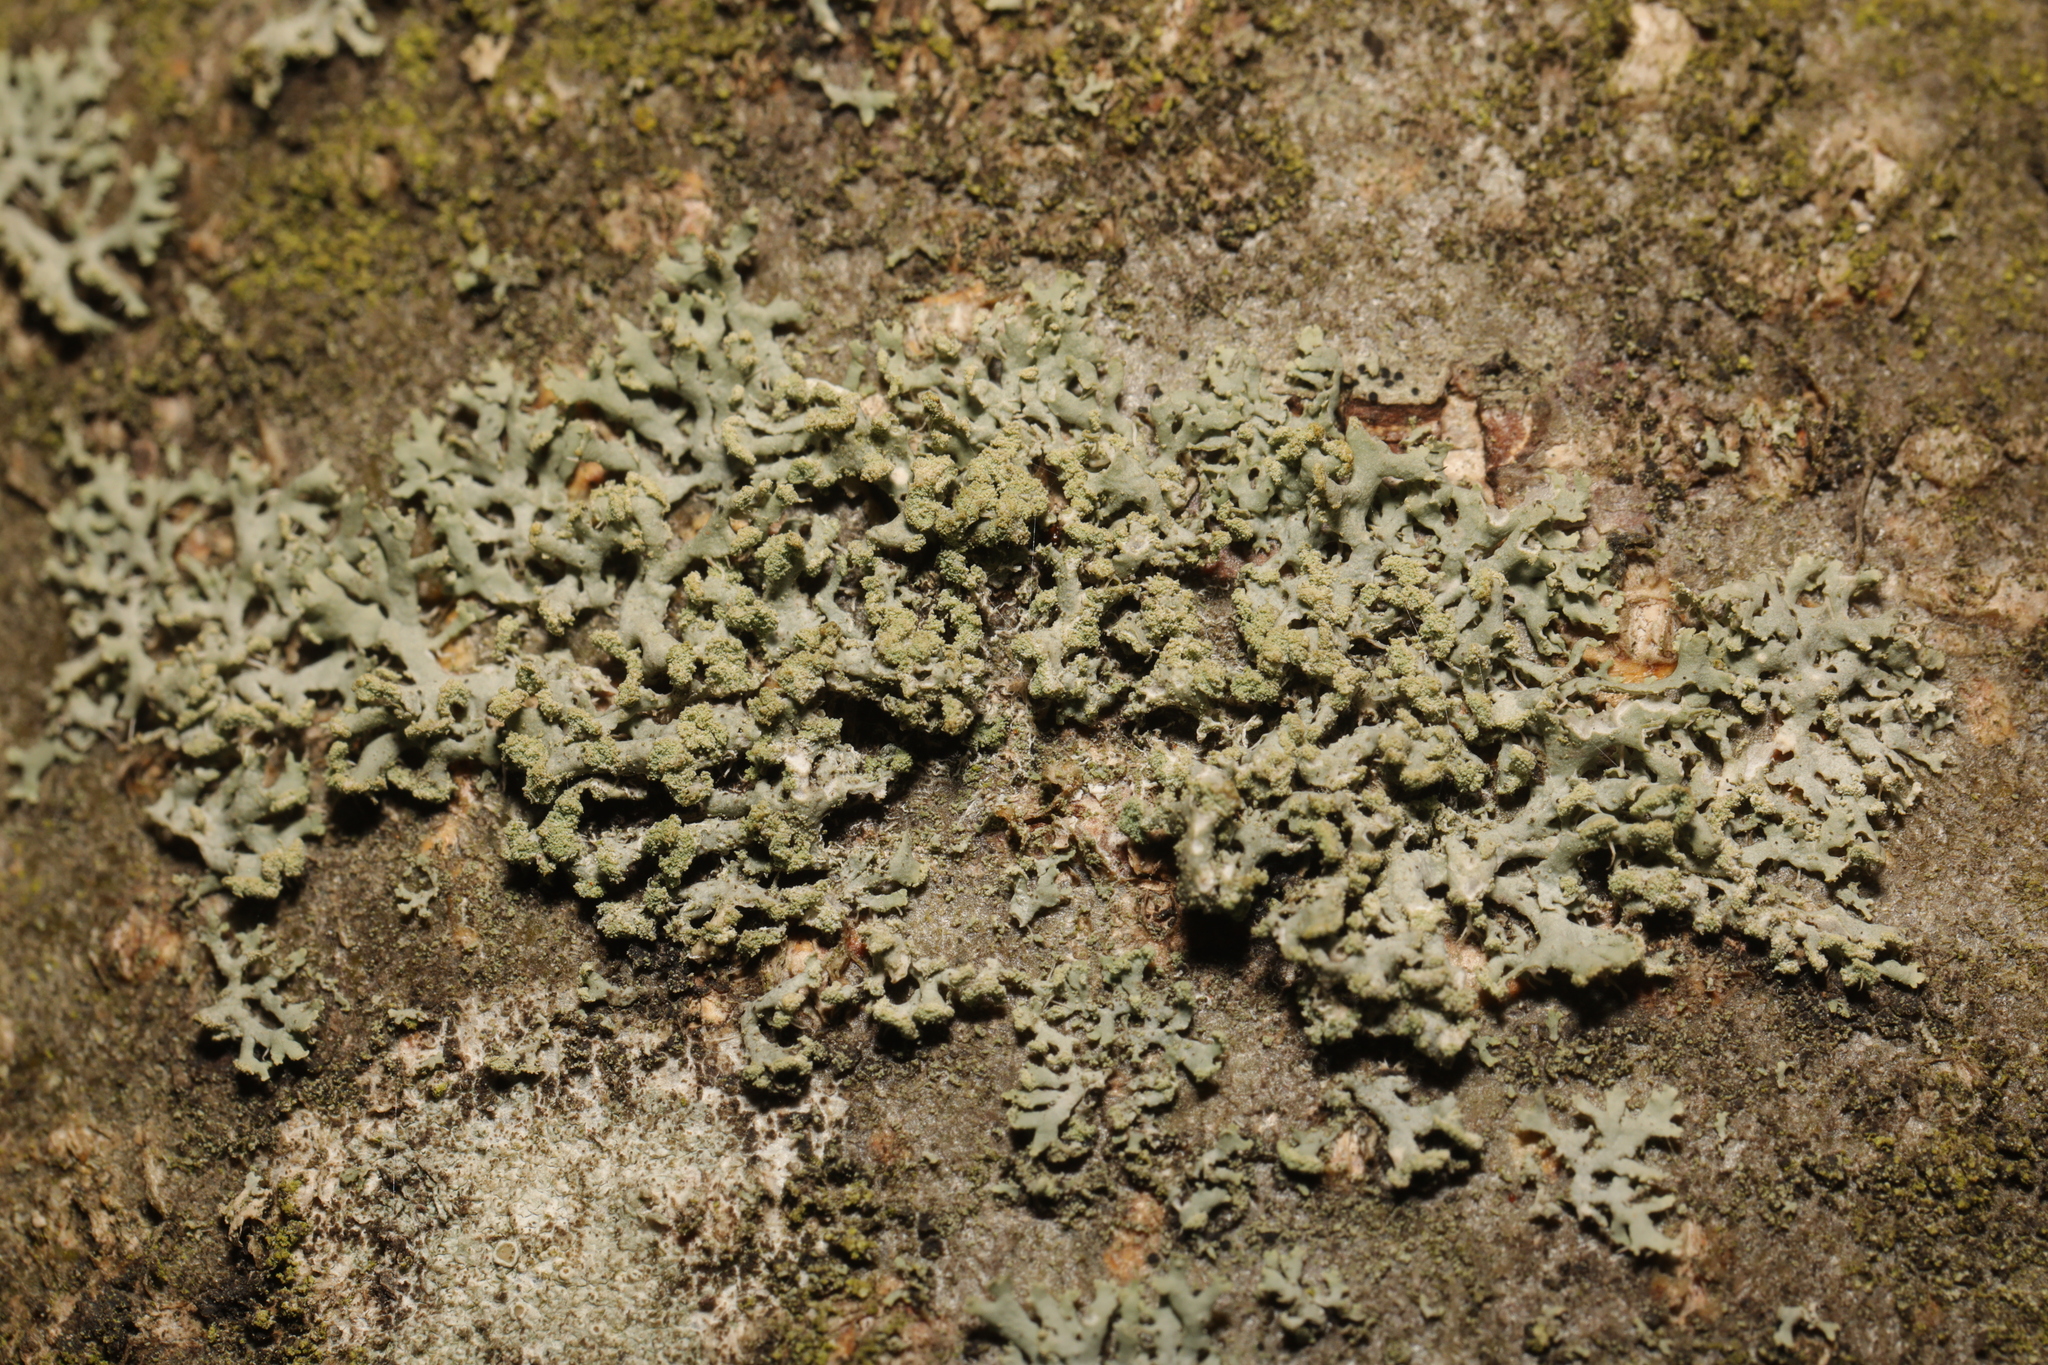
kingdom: Fungi
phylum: Ascomycota
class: Lecanoromycetes
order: Caliciales
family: Physciaceae
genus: Physcia
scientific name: Physcia tenella
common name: Fringed rosette lichen
